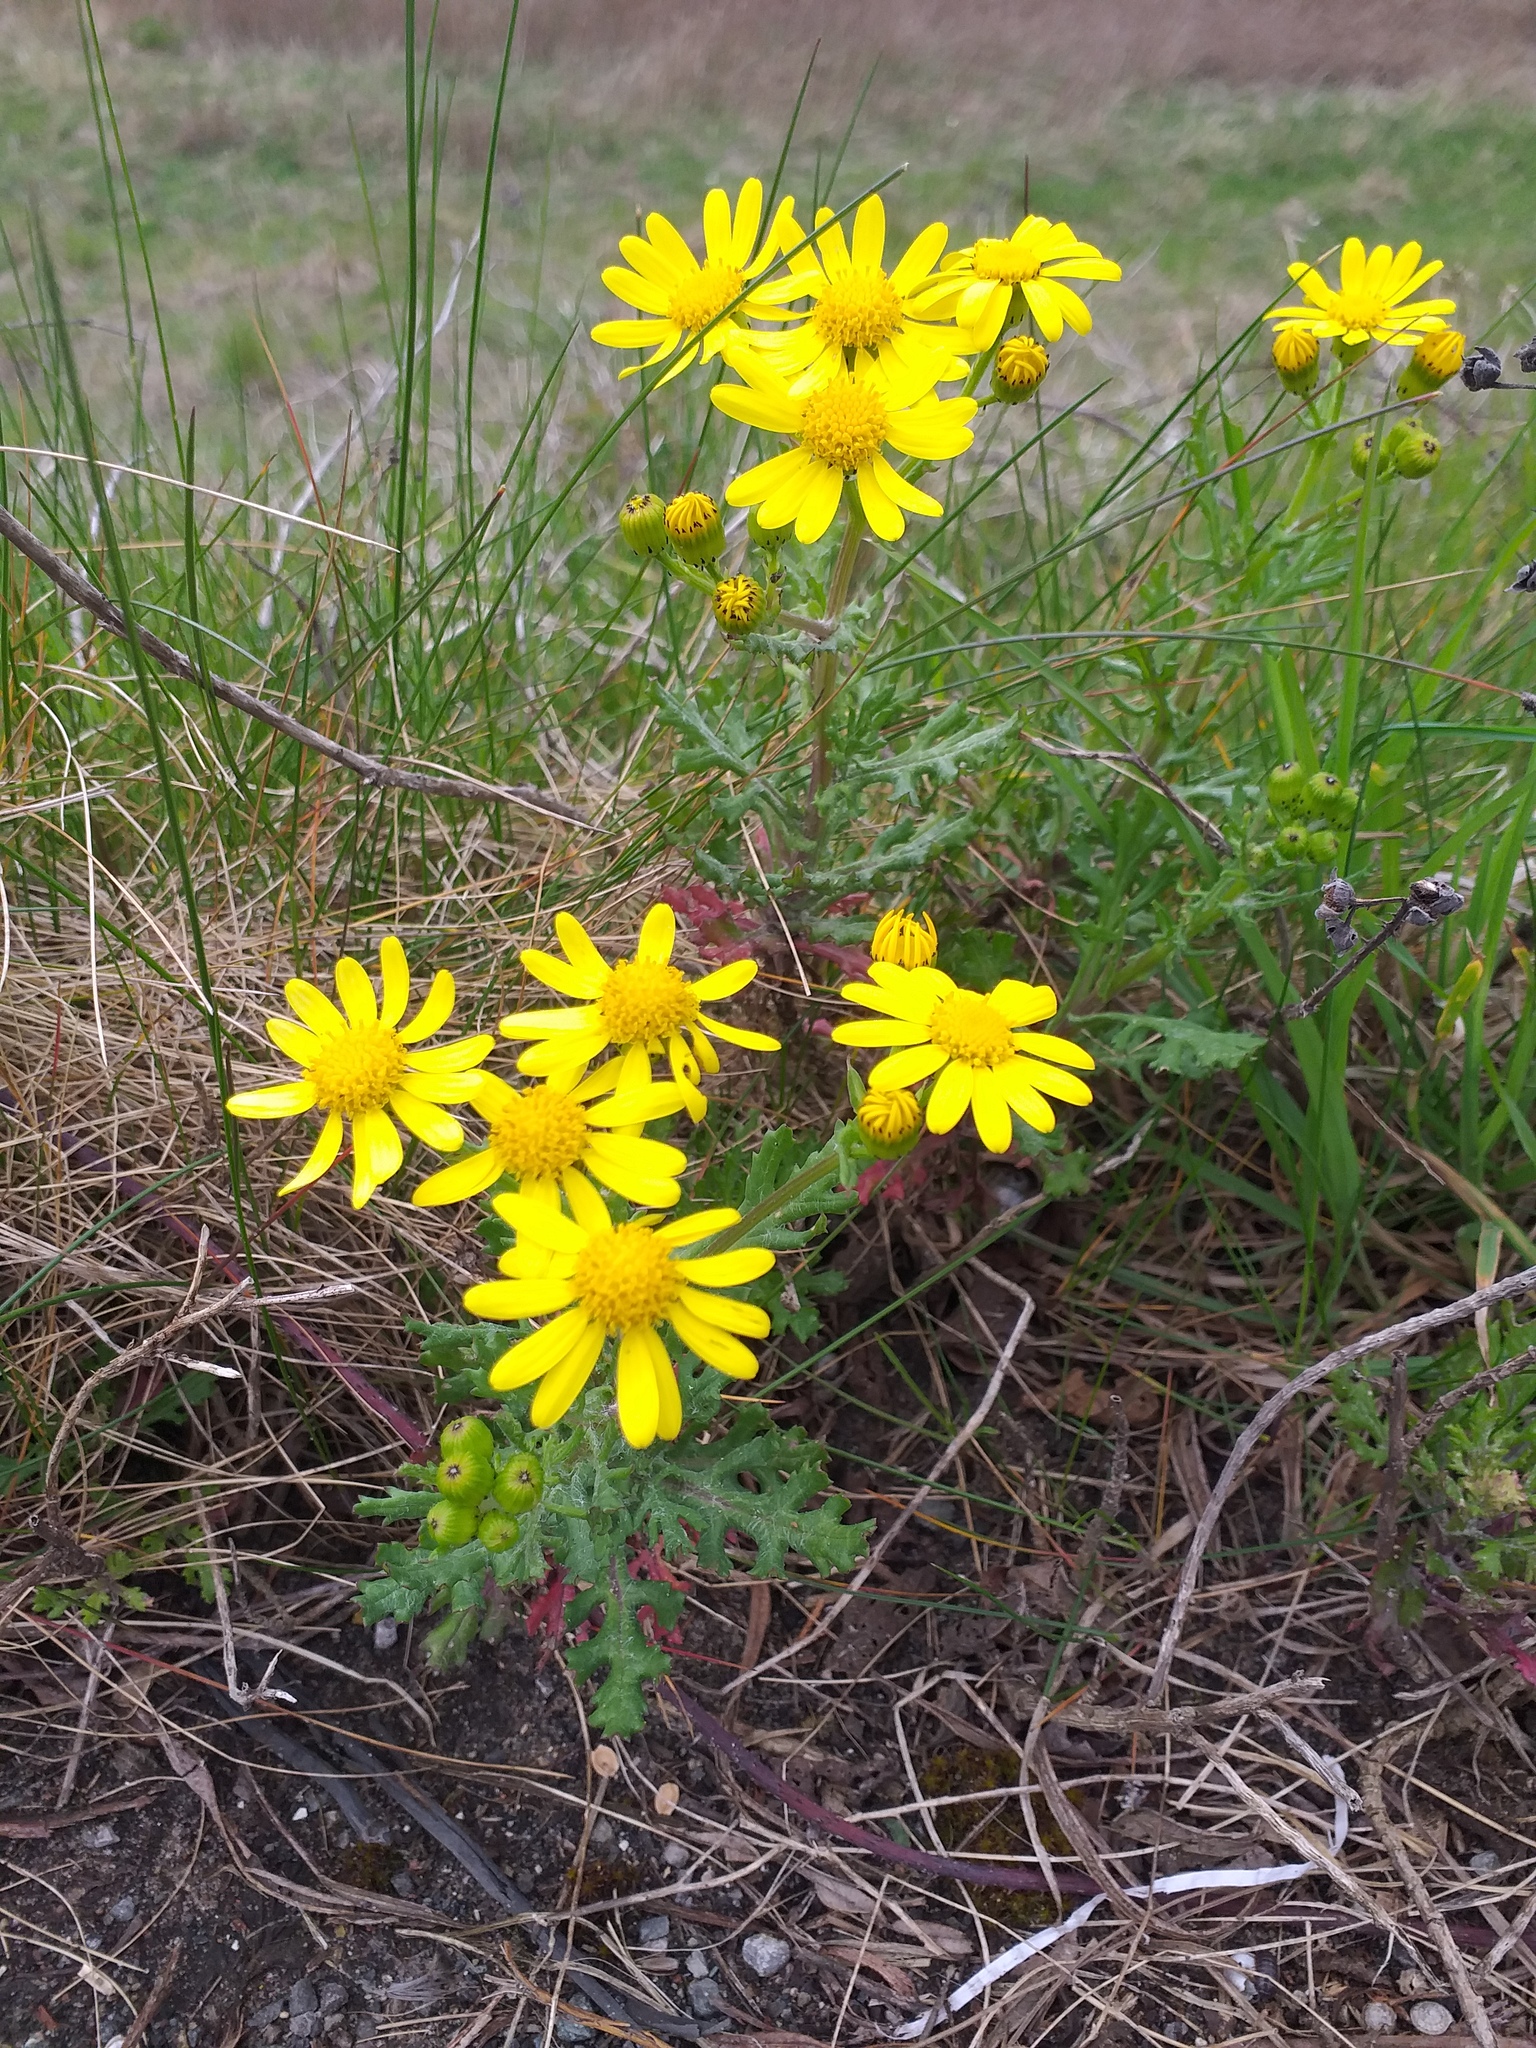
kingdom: Plantae
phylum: Tracheophyta
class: Magnoliopsida
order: Asterales
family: Asteraceae
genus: Senecio
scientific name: Senecio squalidus
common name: Oxford ragwort
